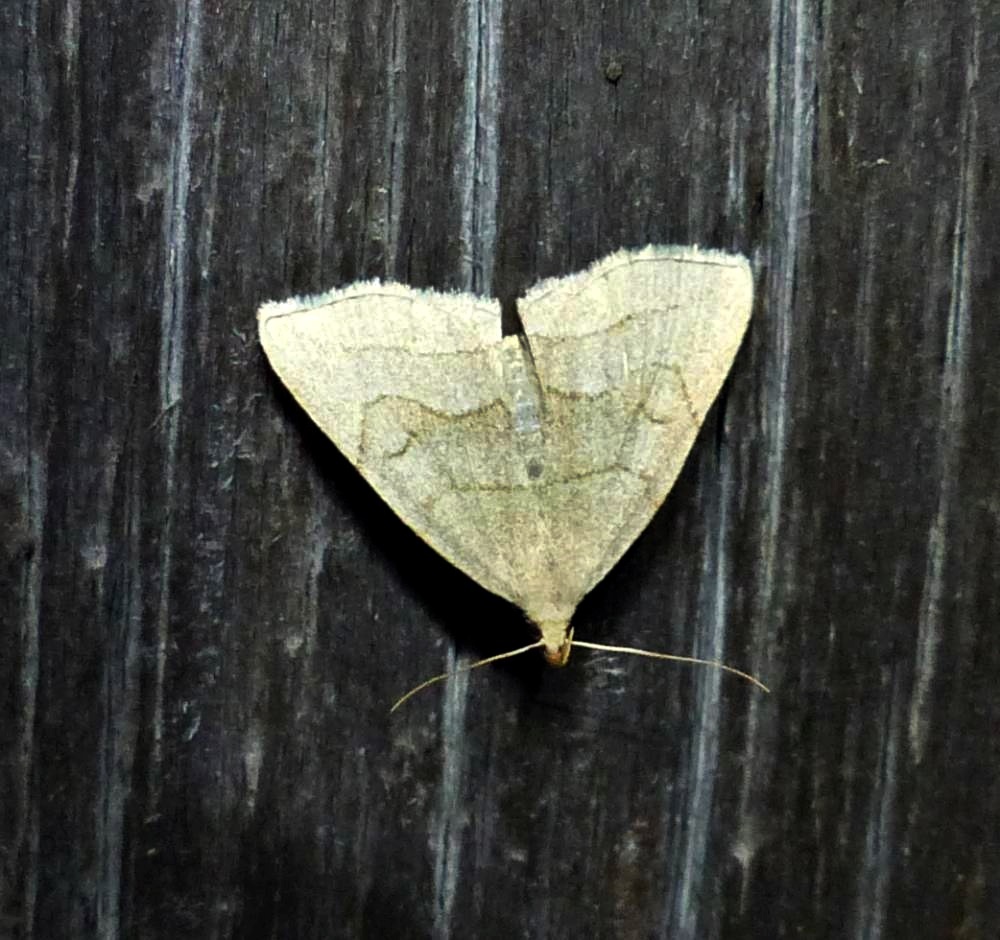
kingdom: Animalia
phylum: Arthropoda
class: Insecta
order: Lepidoptera
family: Erebidae
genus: Zanclognatha
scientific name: Zanclognatha pedipilalis
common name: Grayish fan-foot
